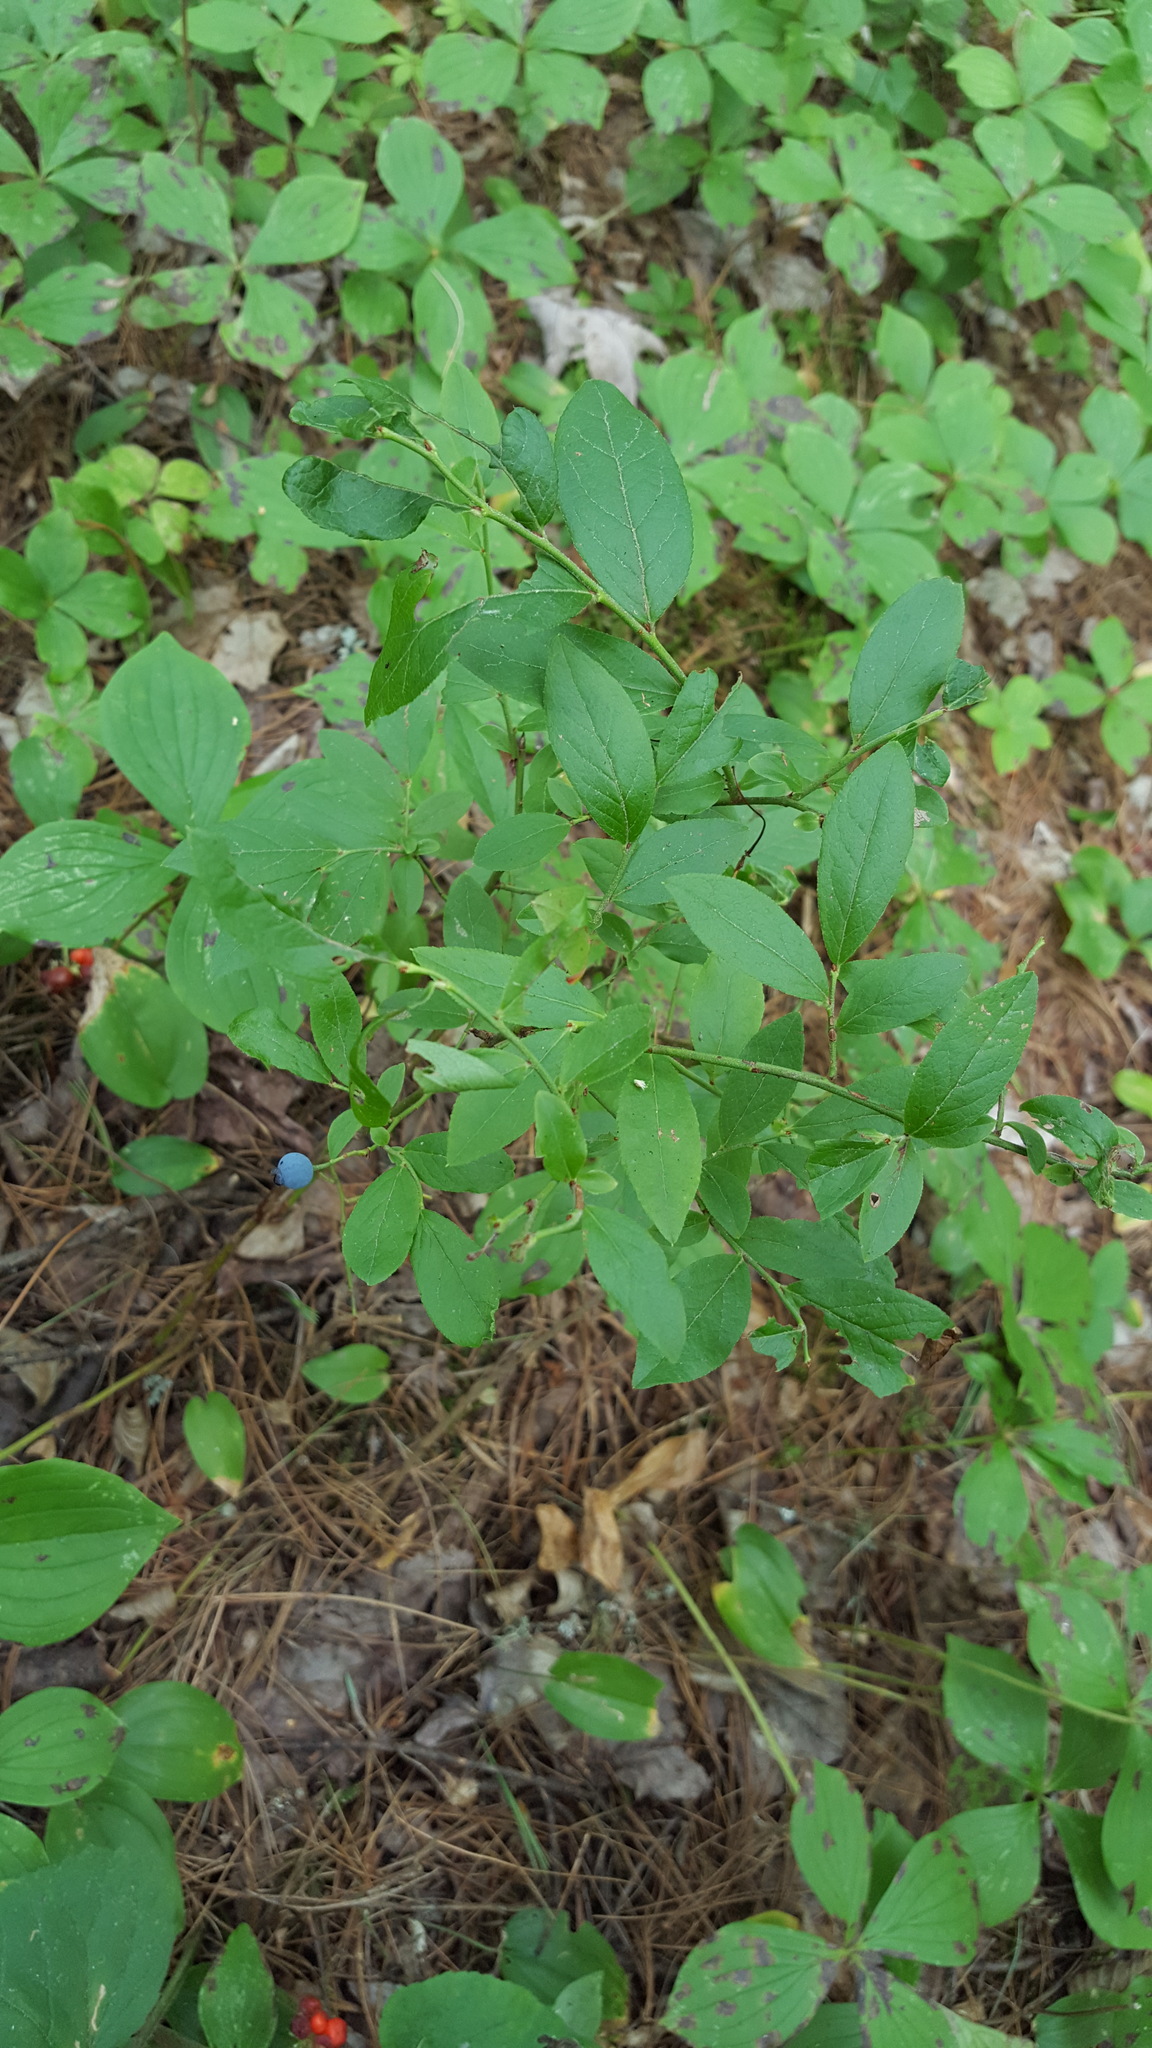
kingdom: Plantae
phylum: Tracheophyta
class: Magnoliopsida
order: Ericales
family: Ericaceae
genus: Vaccinium
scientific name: Vaccinium angustifolium
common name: Early lowbush blueberry
